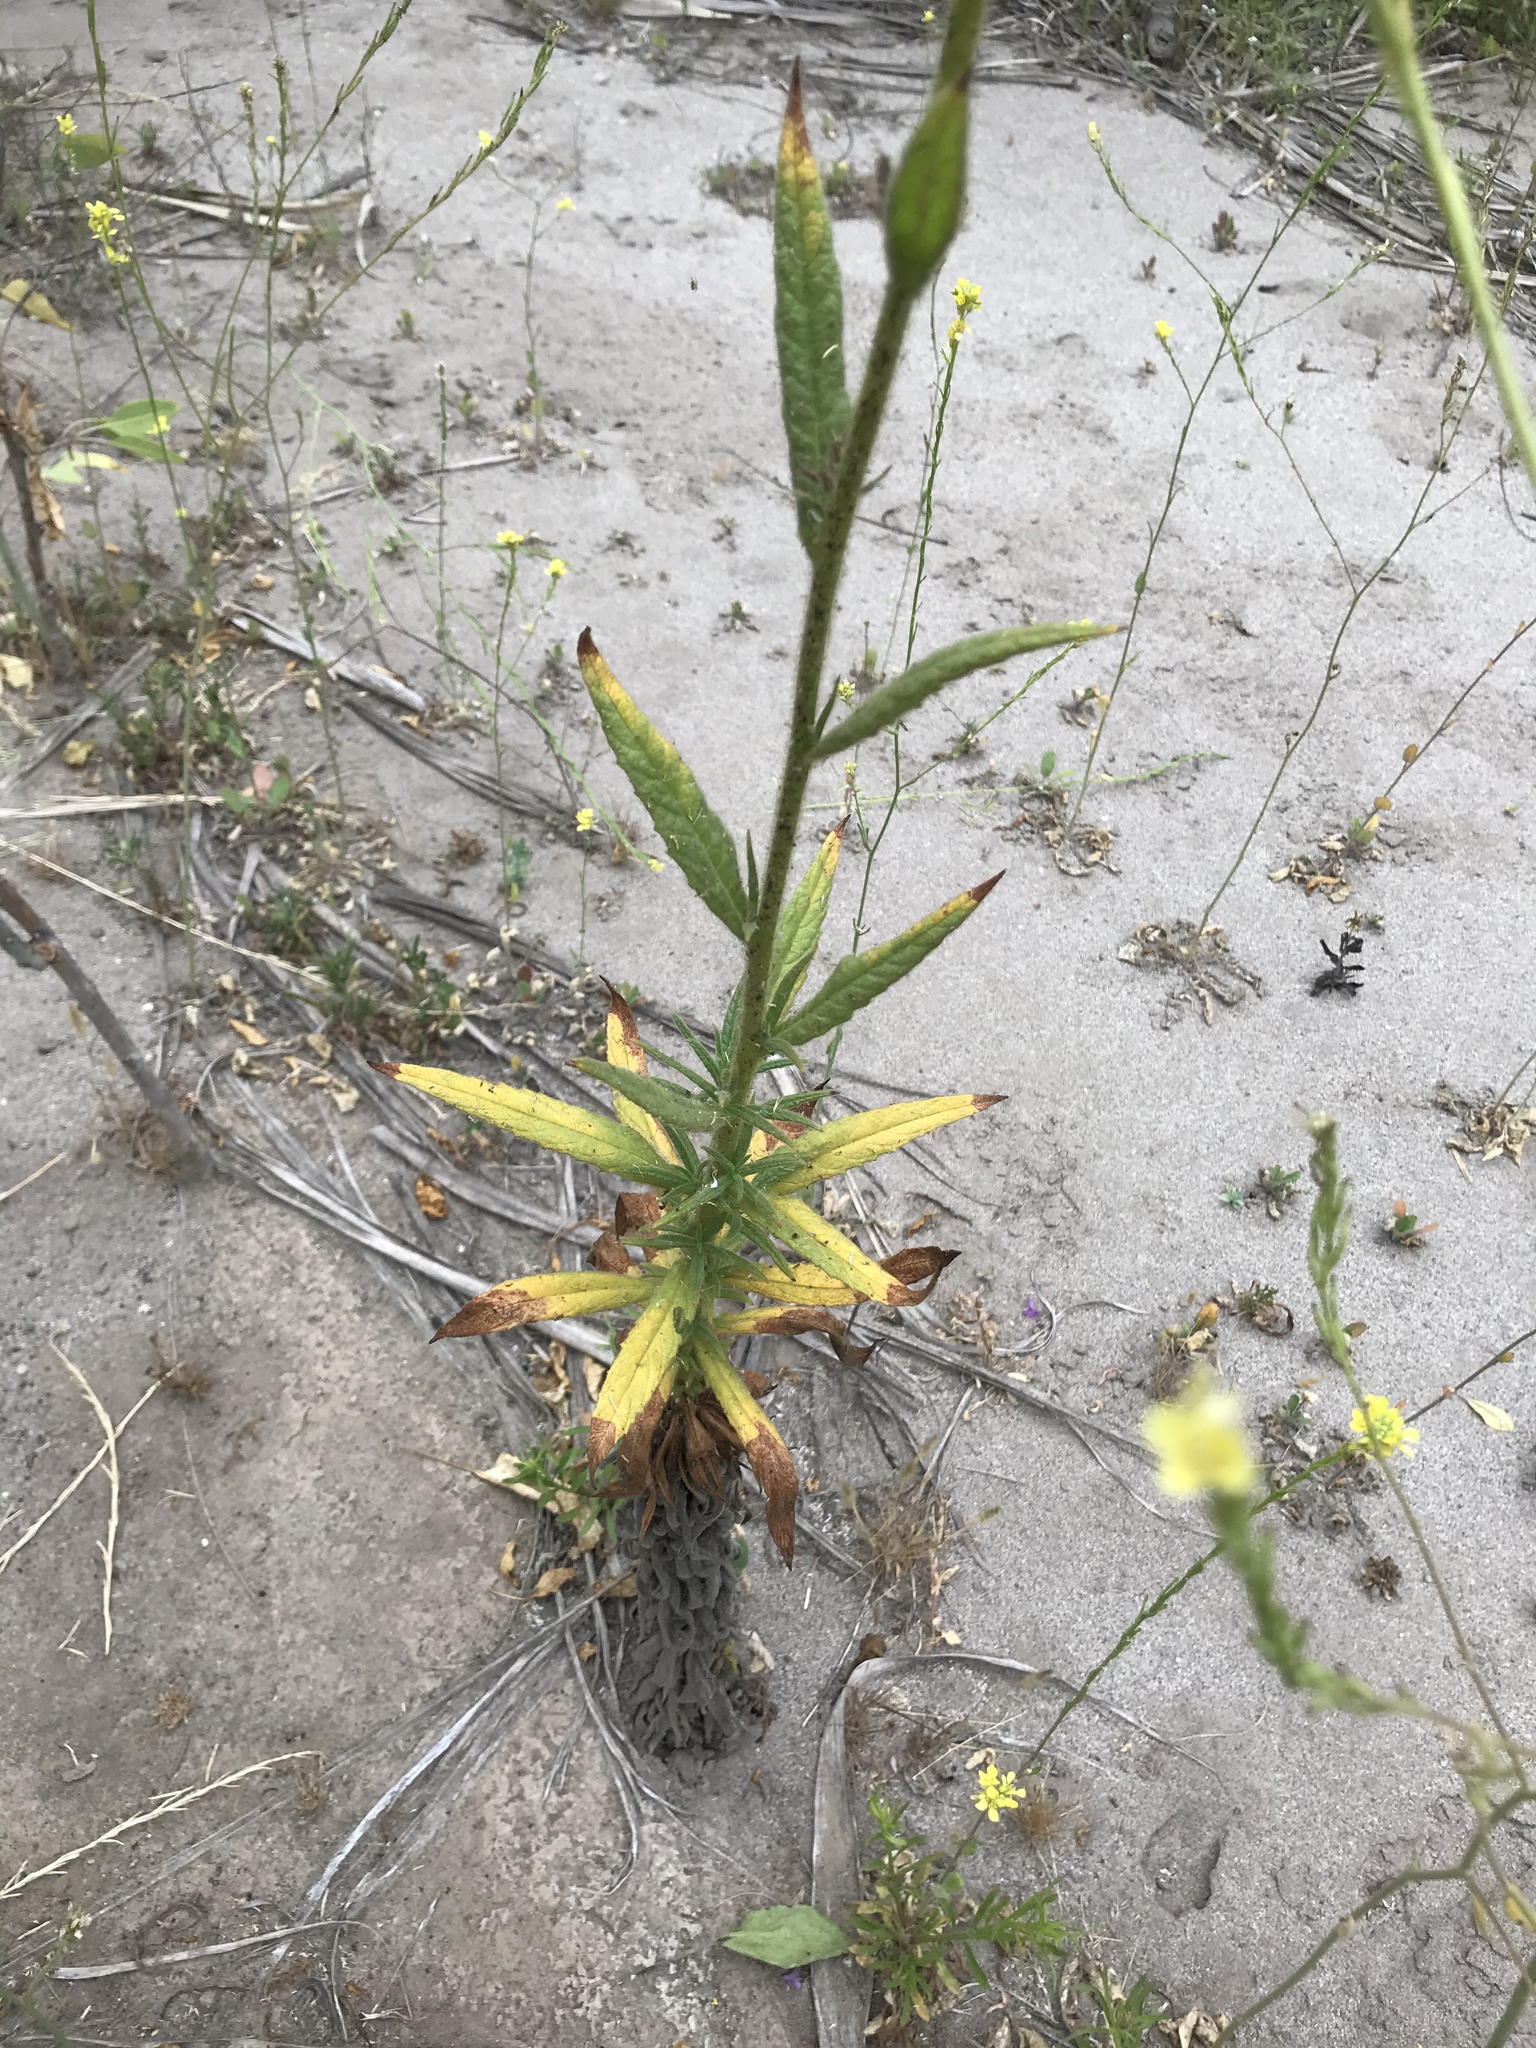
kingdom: Plantae
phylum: Tracheophyta
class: Magnoliopsida
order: Boraginales
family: Namaceae
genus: Turricula
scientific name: Turricula parryi
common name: Poodle-dog-bush
